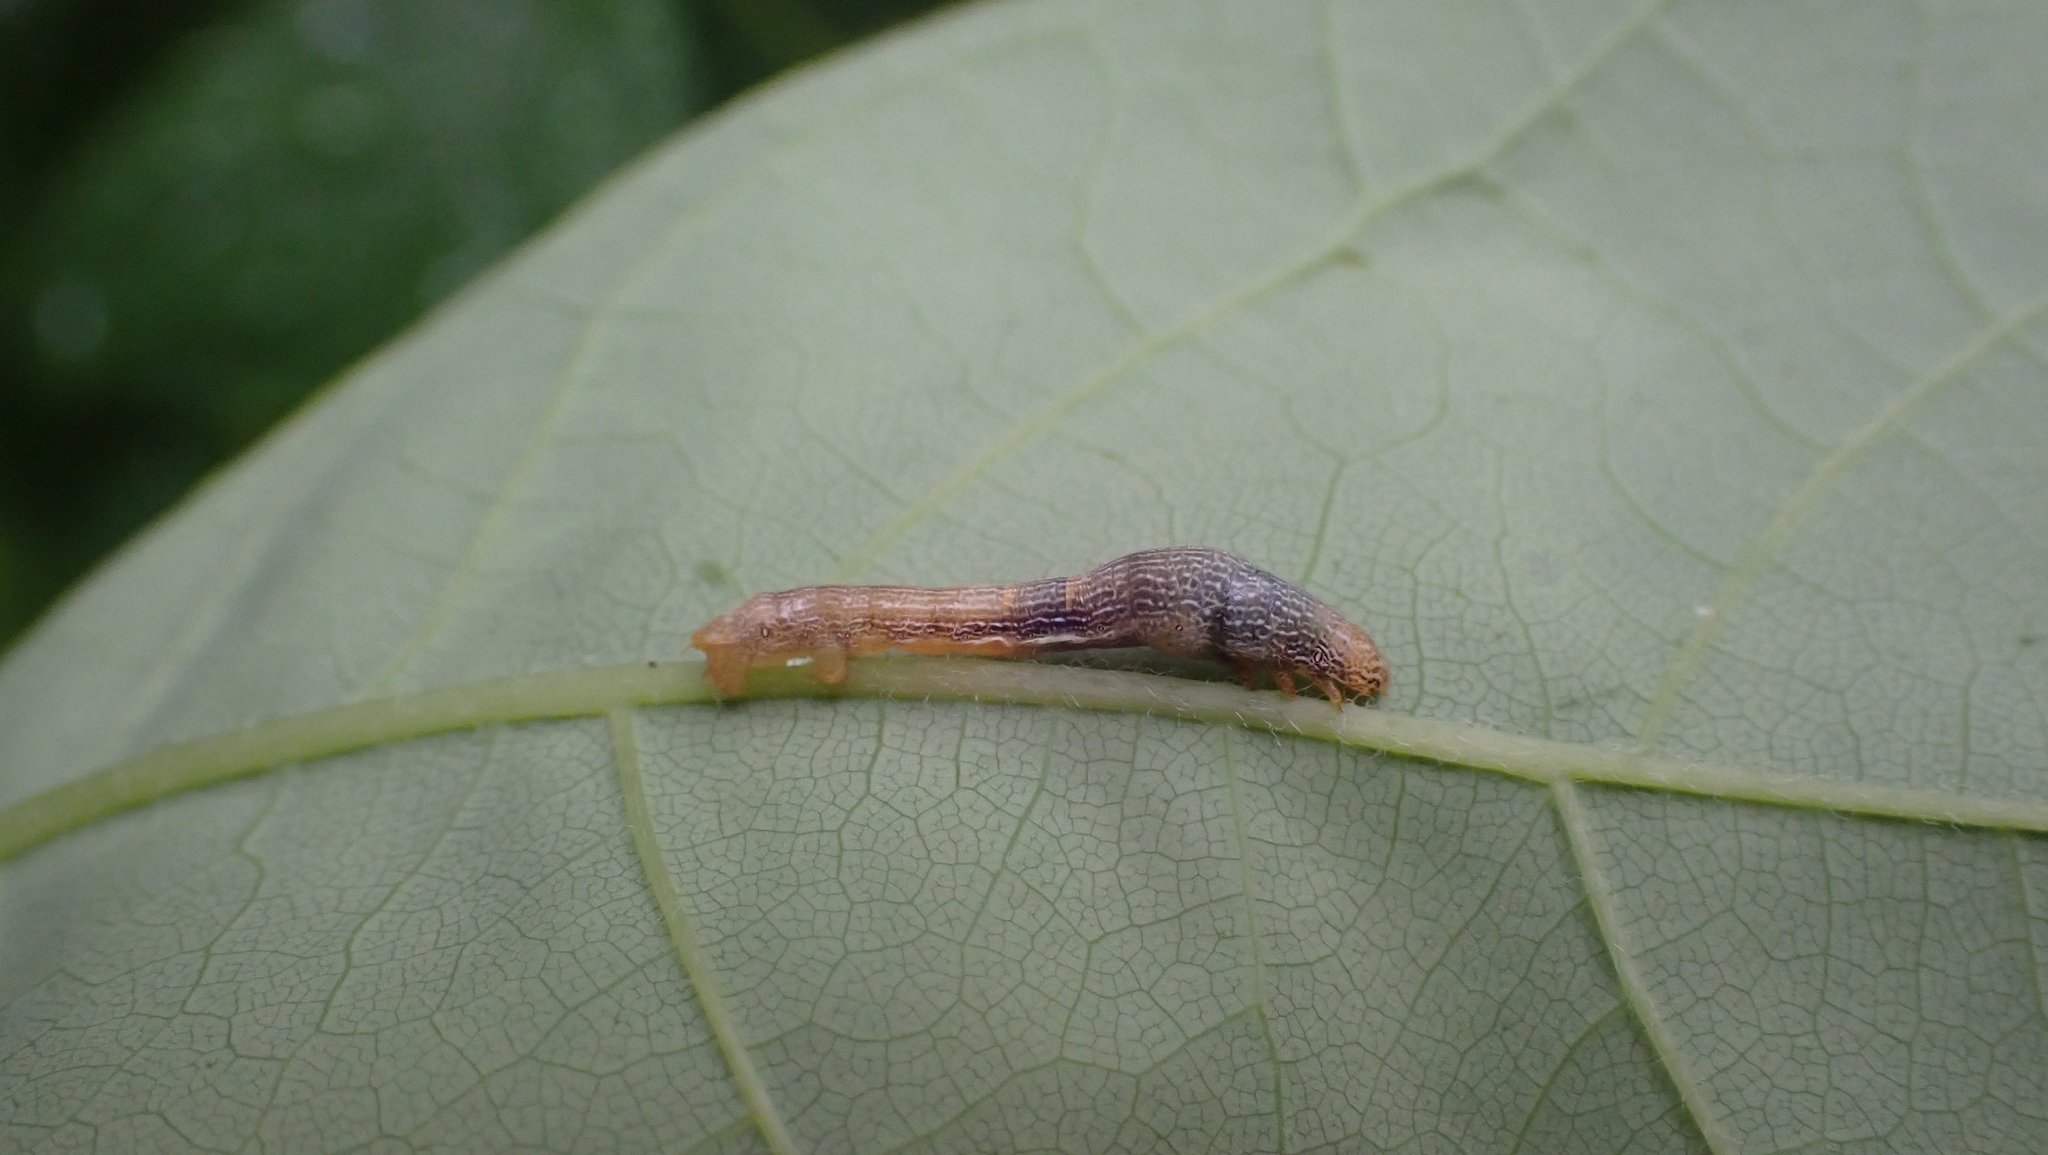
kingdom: Animalia
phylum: Arthropoda
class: Insecta
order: Lepidoptera
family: Geometridae
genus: Epimecis
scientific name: Epimecis hortaria
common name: Tulip-tree beauty
